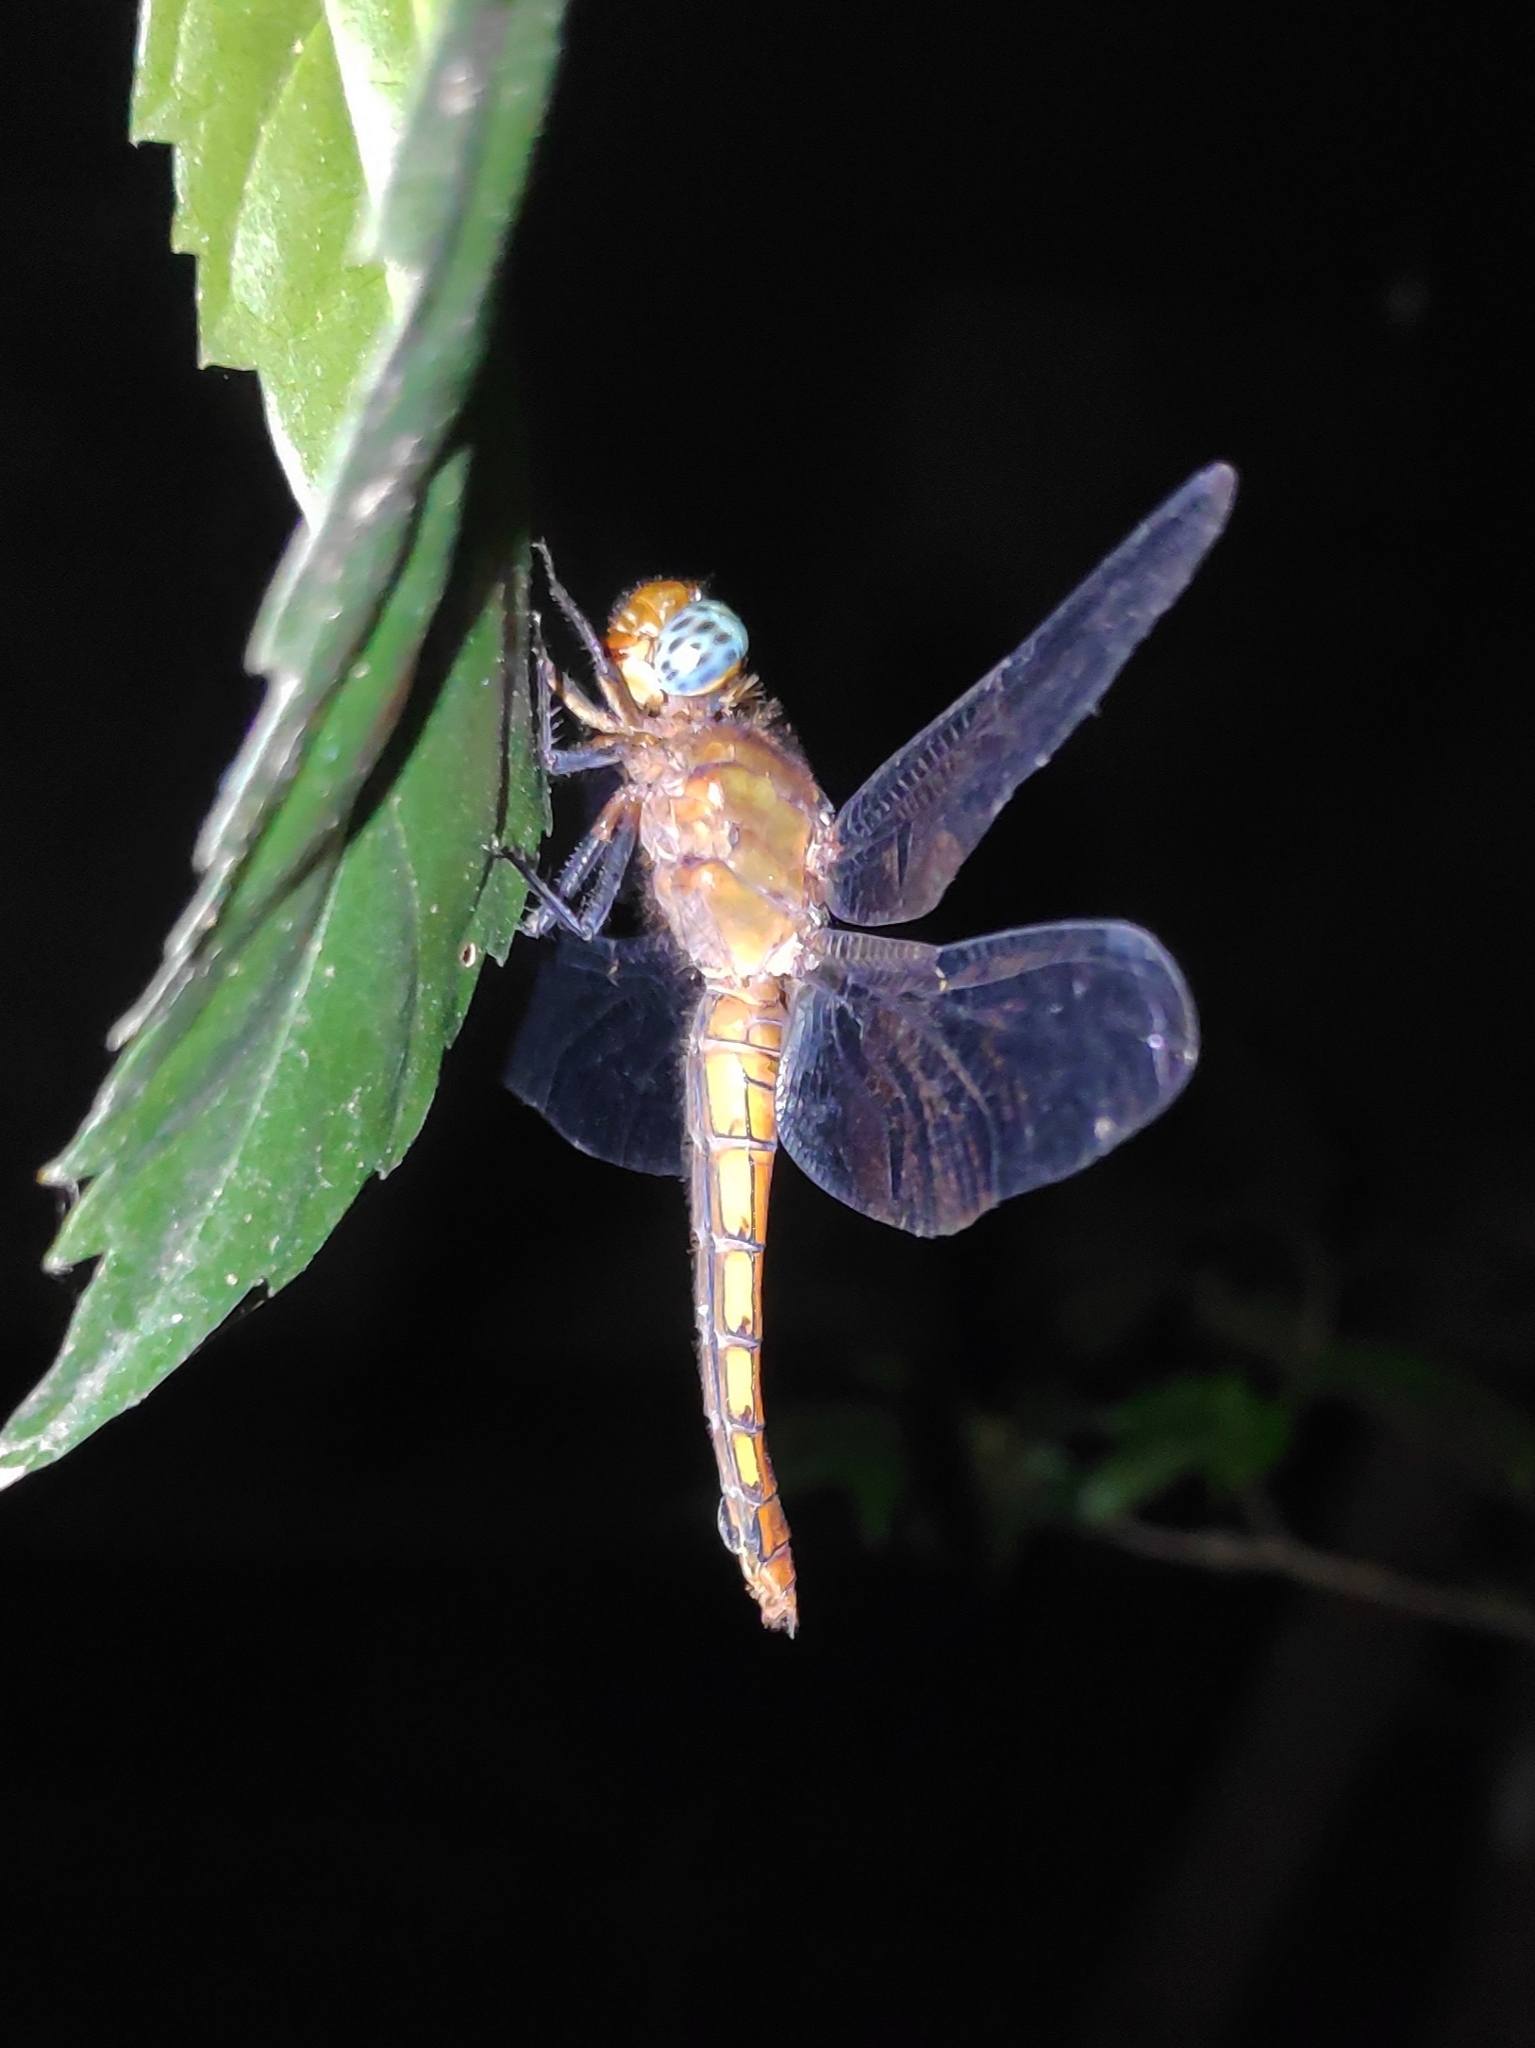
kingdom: Animalia
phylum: Arthropoda
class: Insecta
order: Odonata
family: Libellulidae
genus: Orthetrum
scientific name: Orthetrum pruinosum
